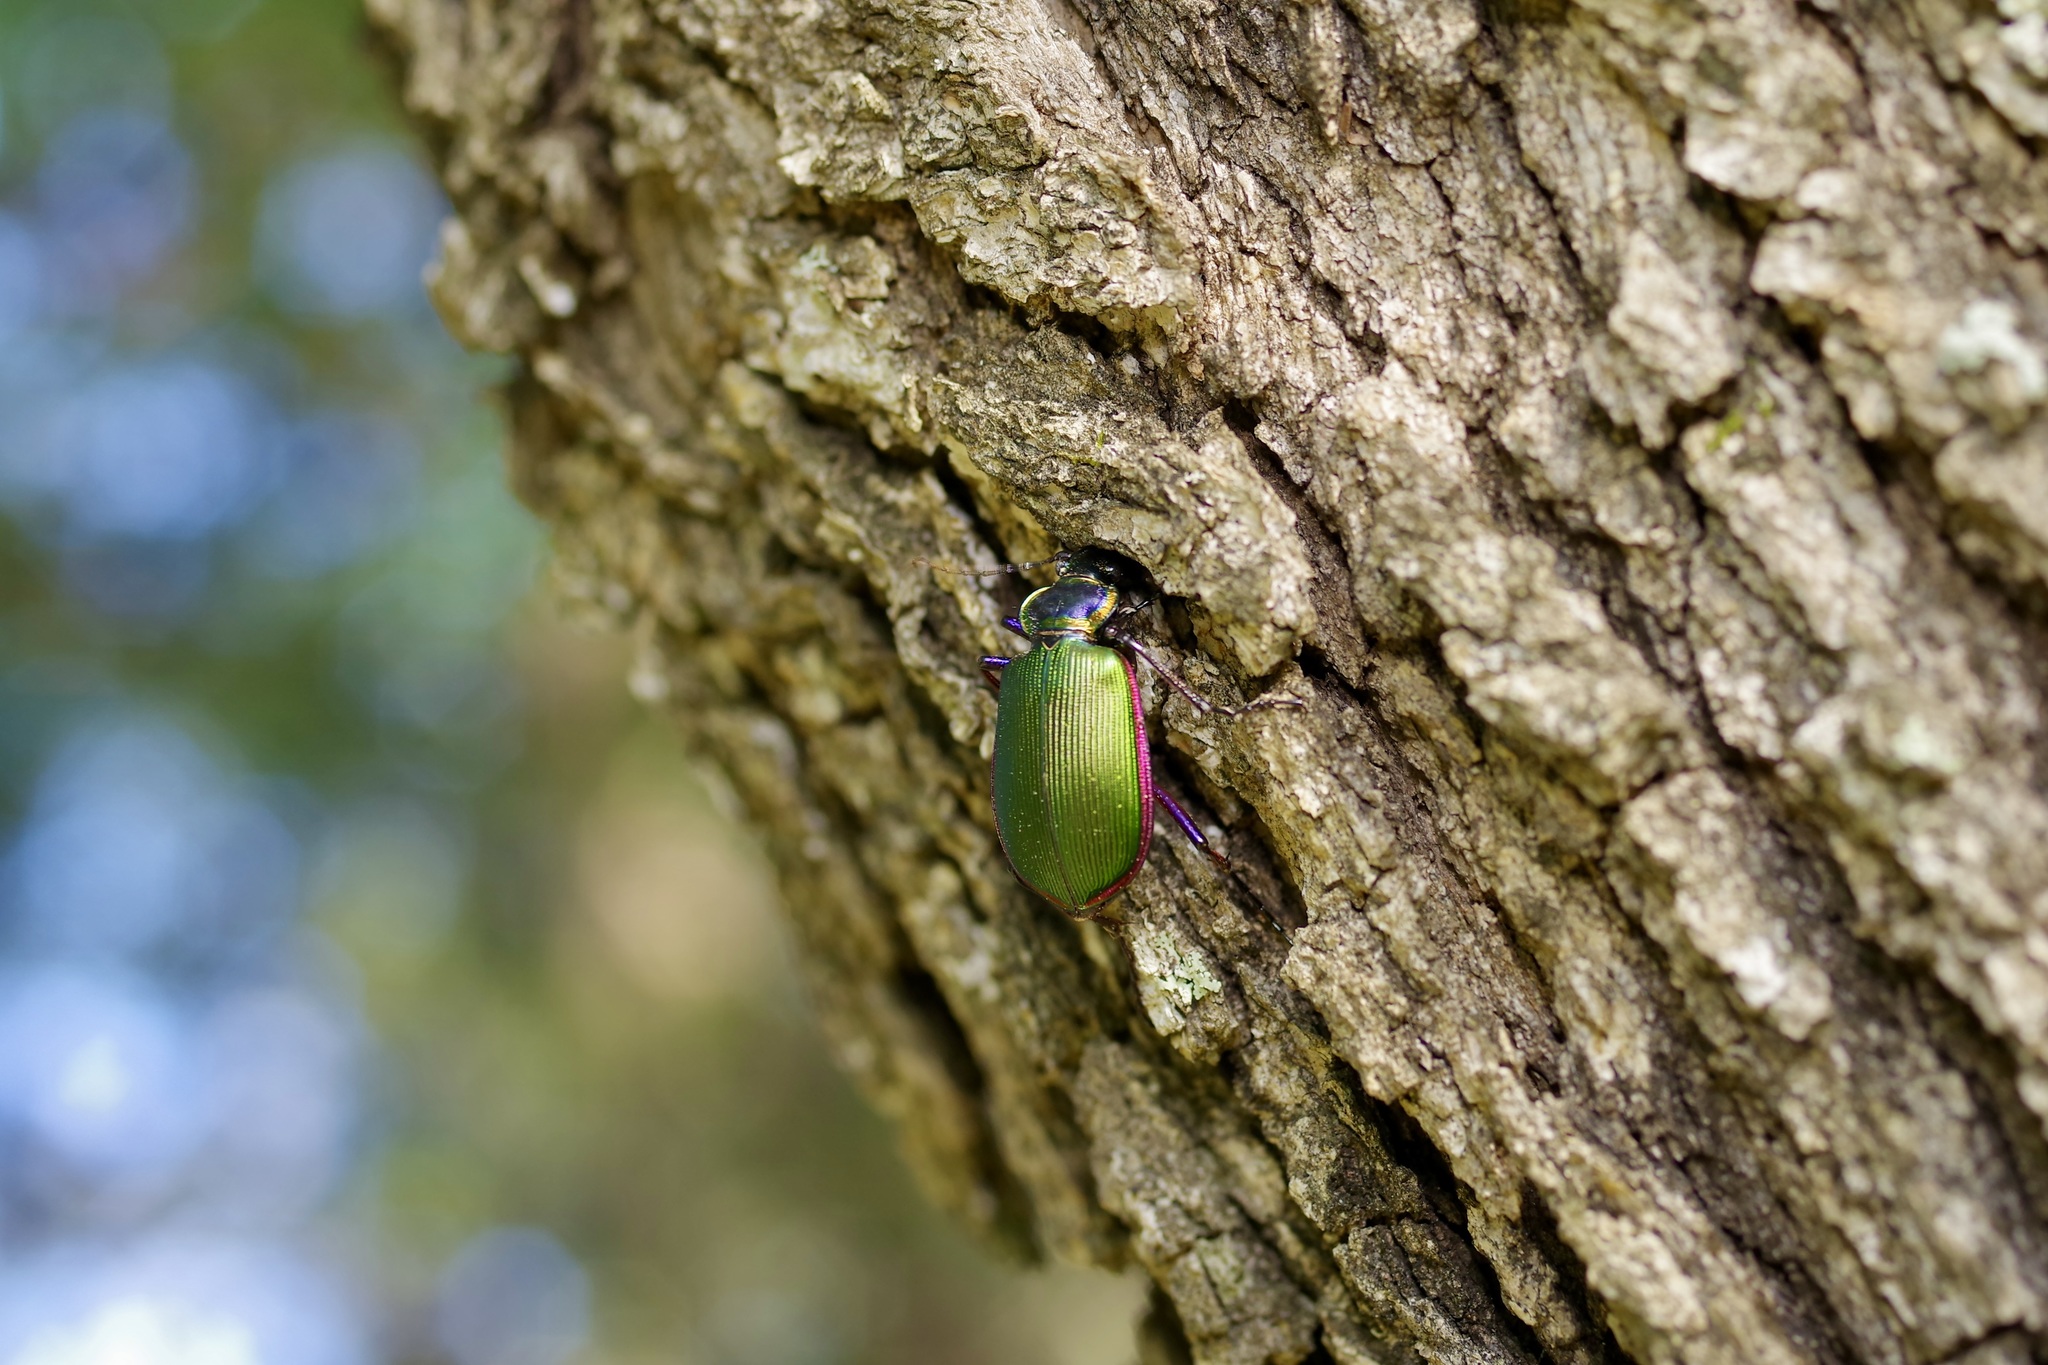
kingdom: Animalia
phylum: Arthropoda
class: Insecta
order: Coleoptera
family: Carabidae
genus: Calosoma
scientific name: Calosoma scrutator
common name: Fiery searcher beetle
